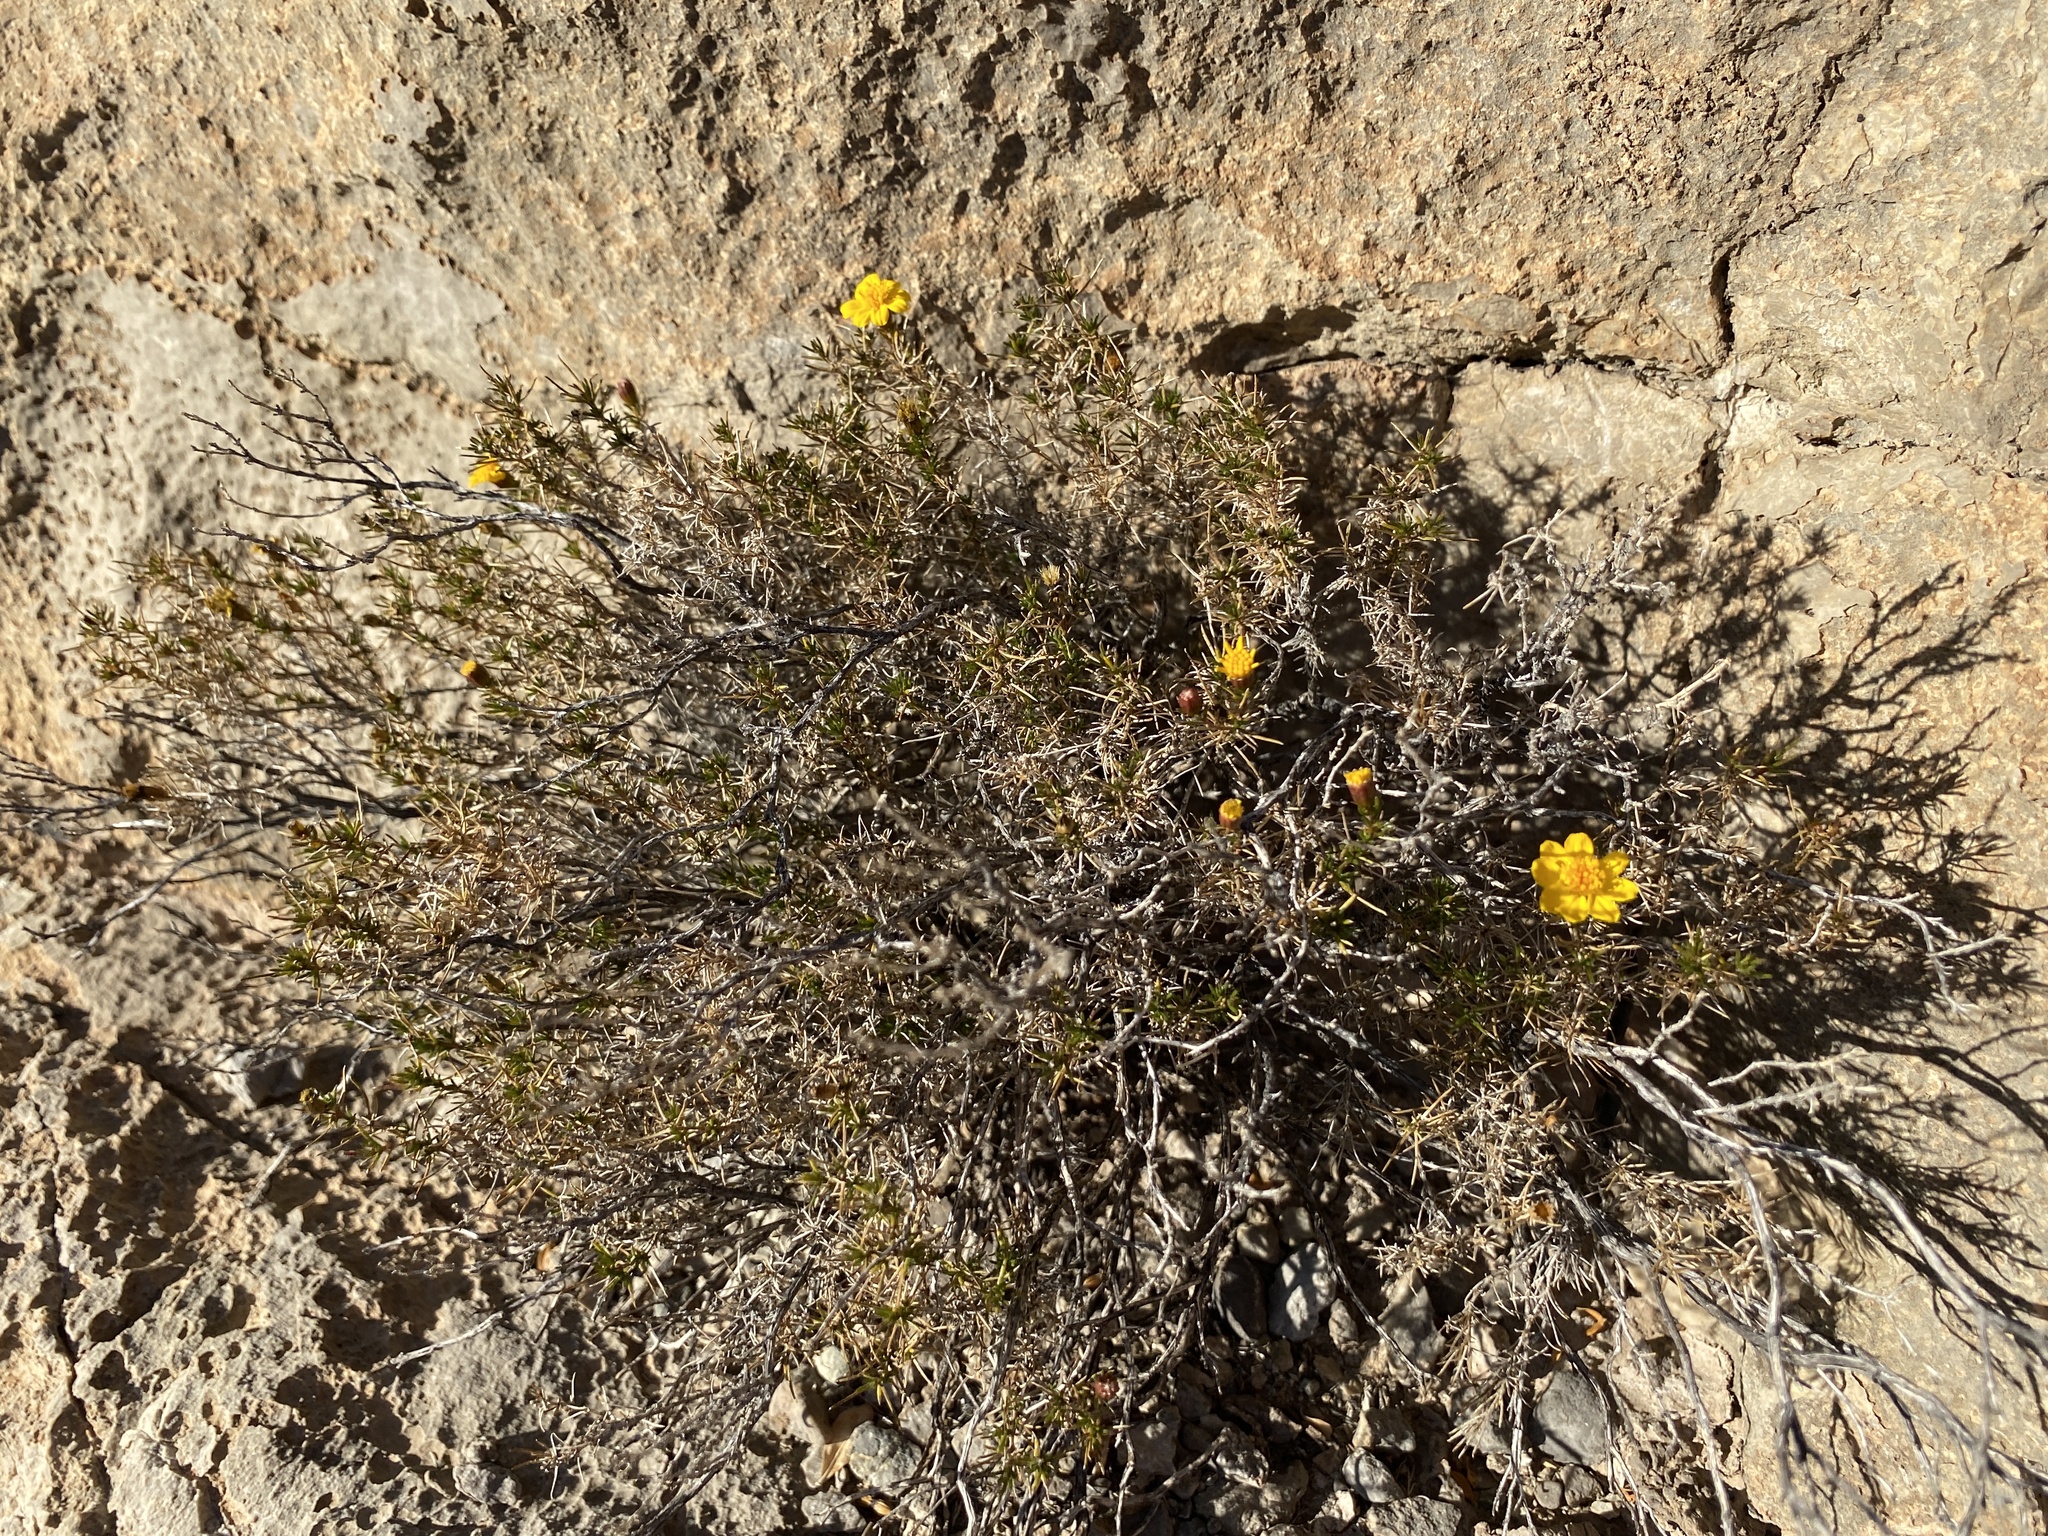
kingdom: Plantae
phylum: Tracheophyta
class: Magnoliopsida
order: Asterales
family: Asteraceae
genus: Thymophylla
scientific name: Thymophylla acerosa
